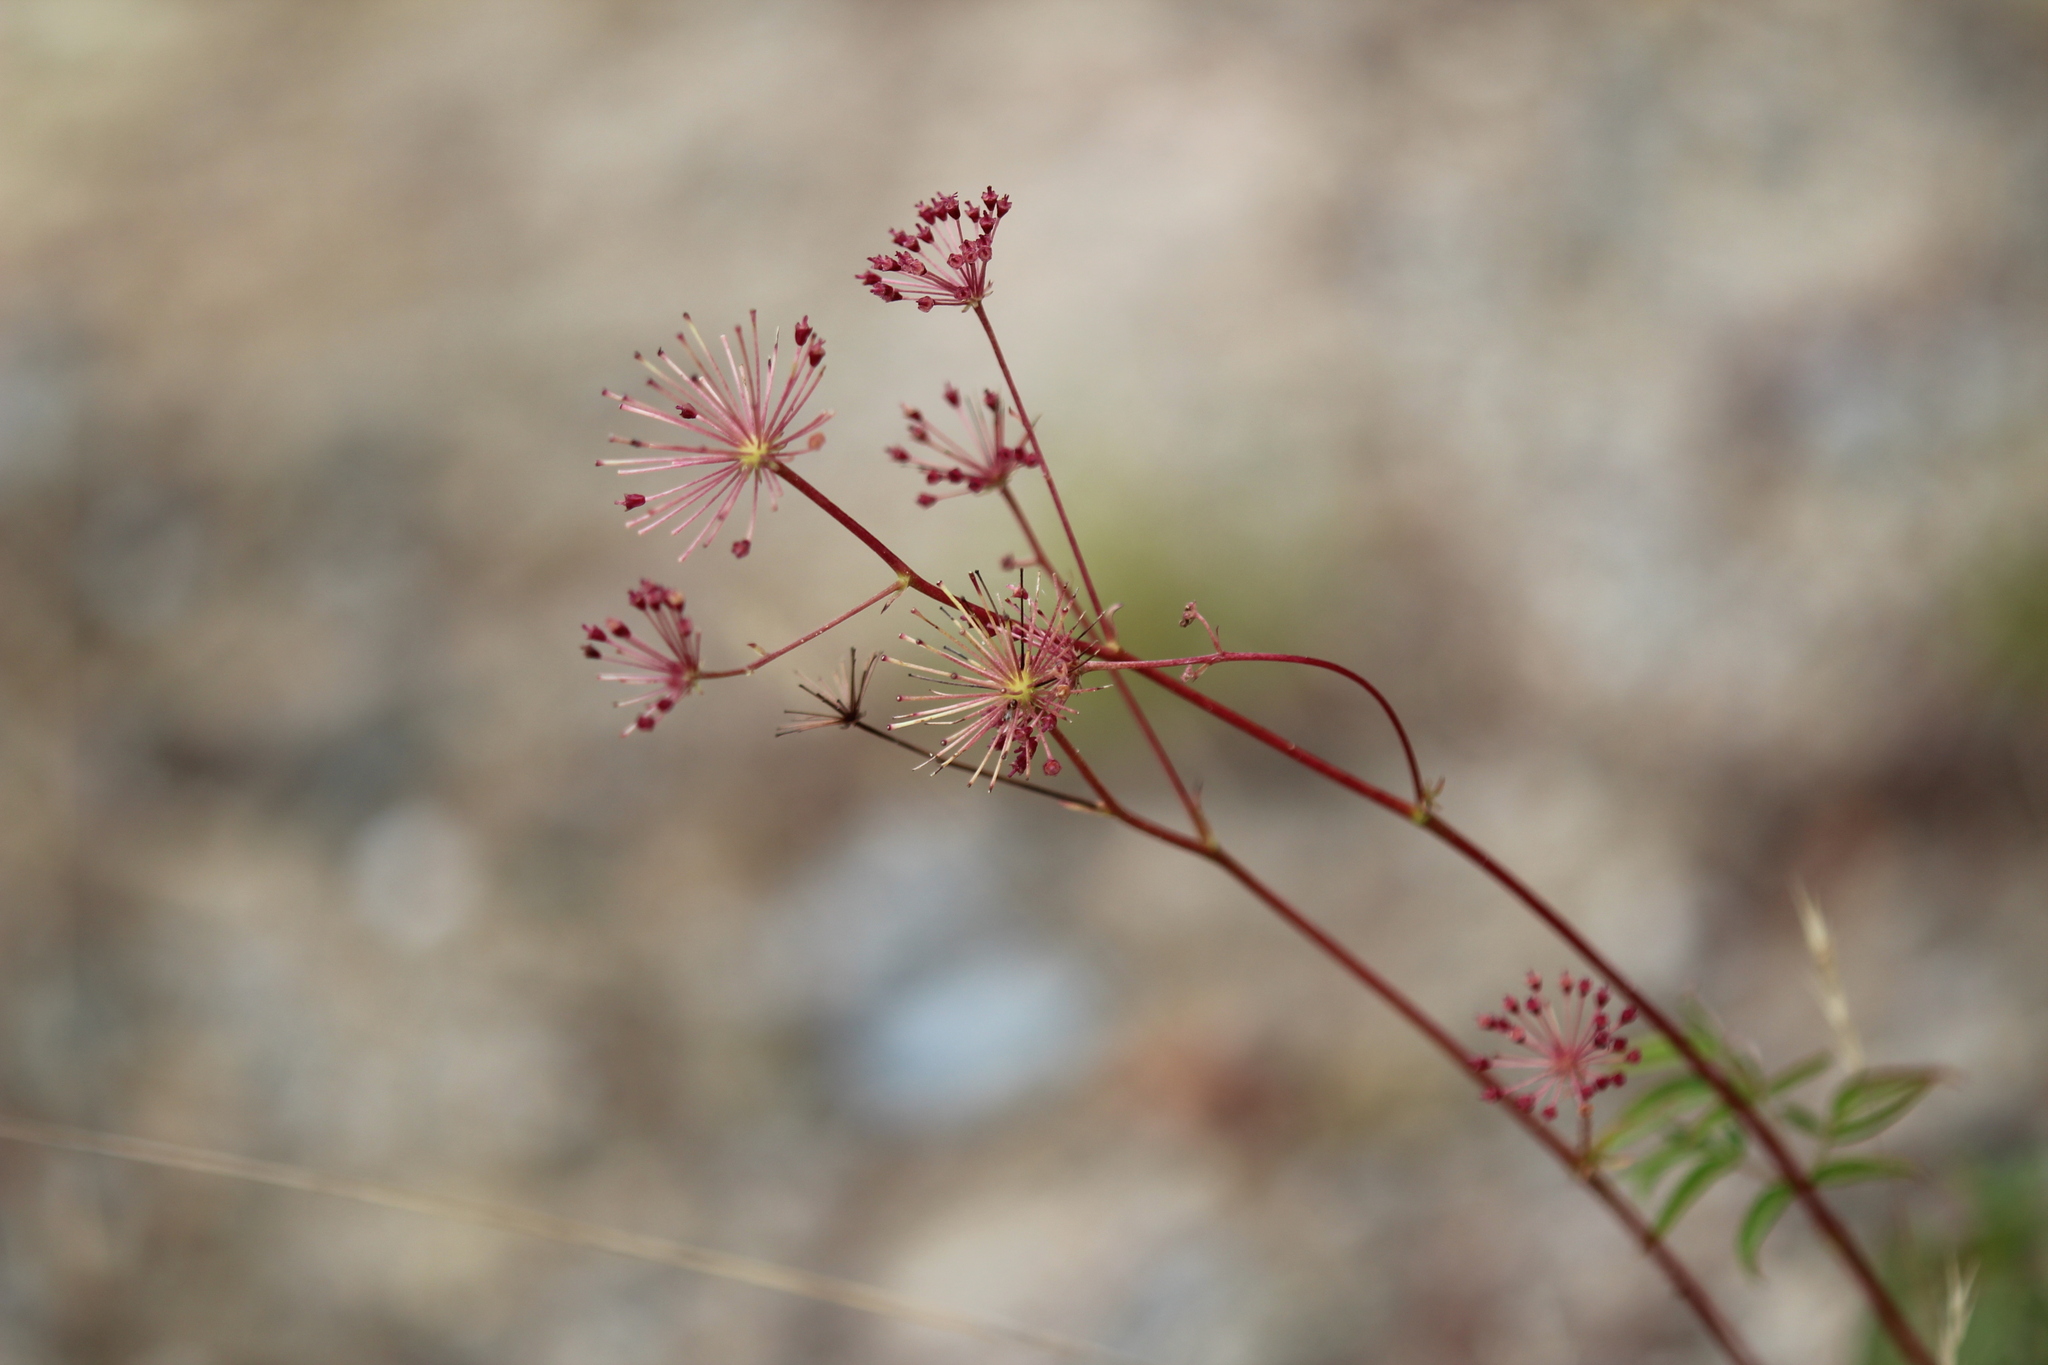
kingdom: Plantae
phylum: Tracheophyta
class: Magnoliopsida
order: Apiales
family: Araliaceae
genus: Aralia
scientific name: Aralia hispida
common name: Bristly sarsaparilla
